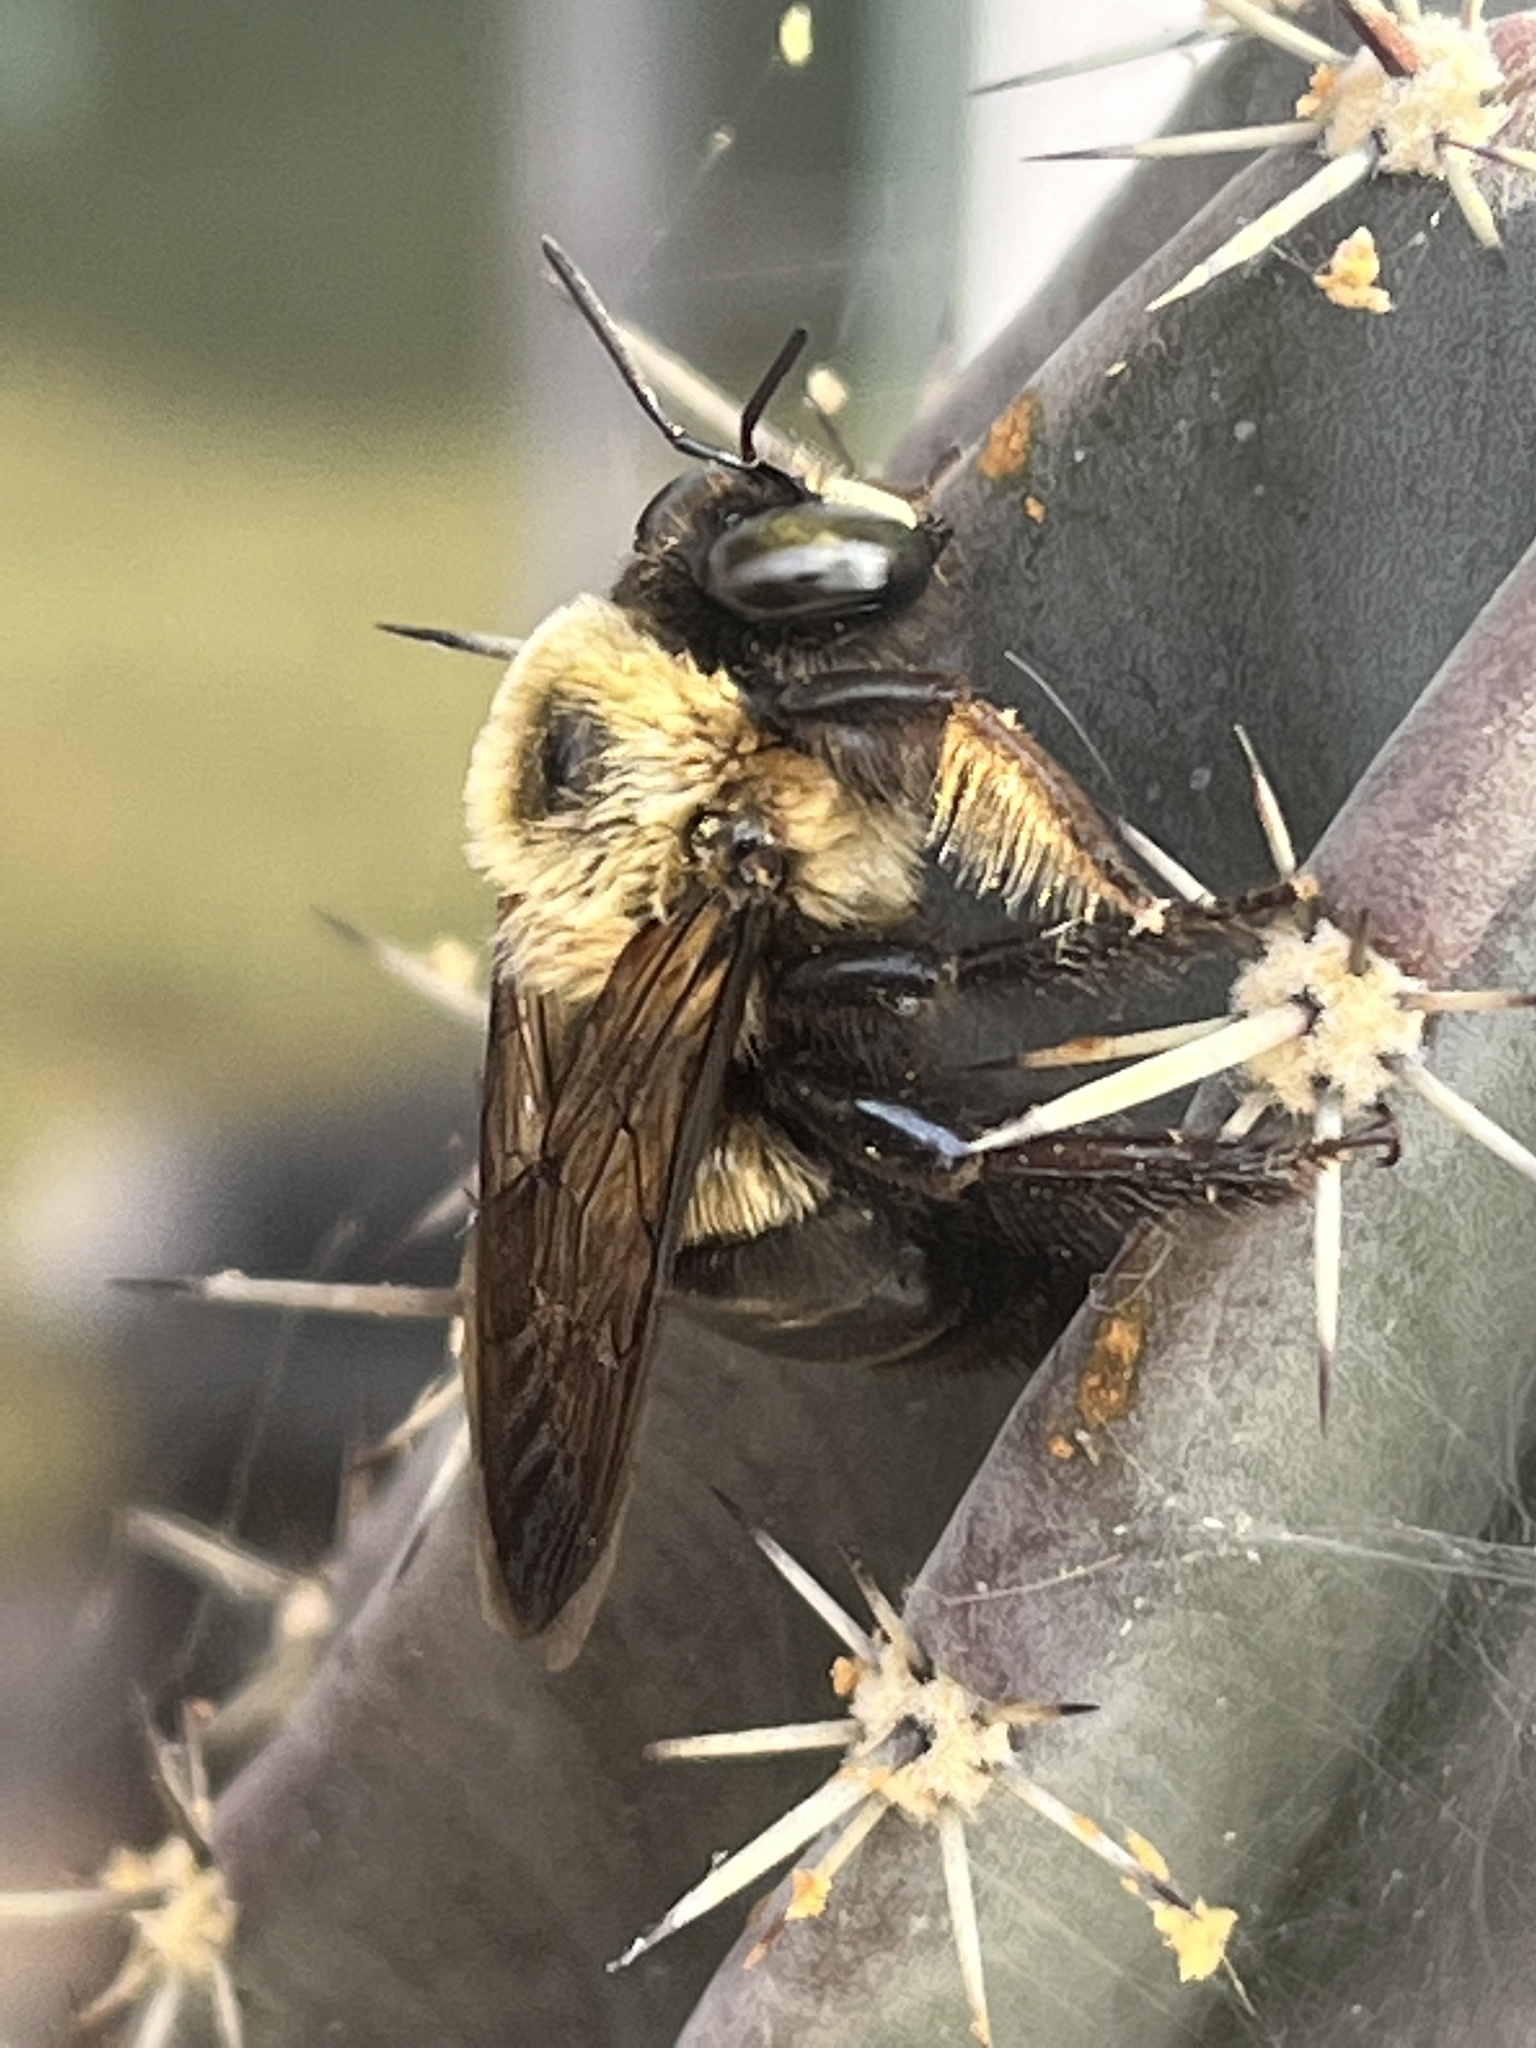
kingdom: Animalia
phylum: Arthropoda
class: Insecta
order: Hymenoptera
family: Apidae
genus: Xylocopa
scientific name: Xylocopa virginica
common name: Carpenter bee
